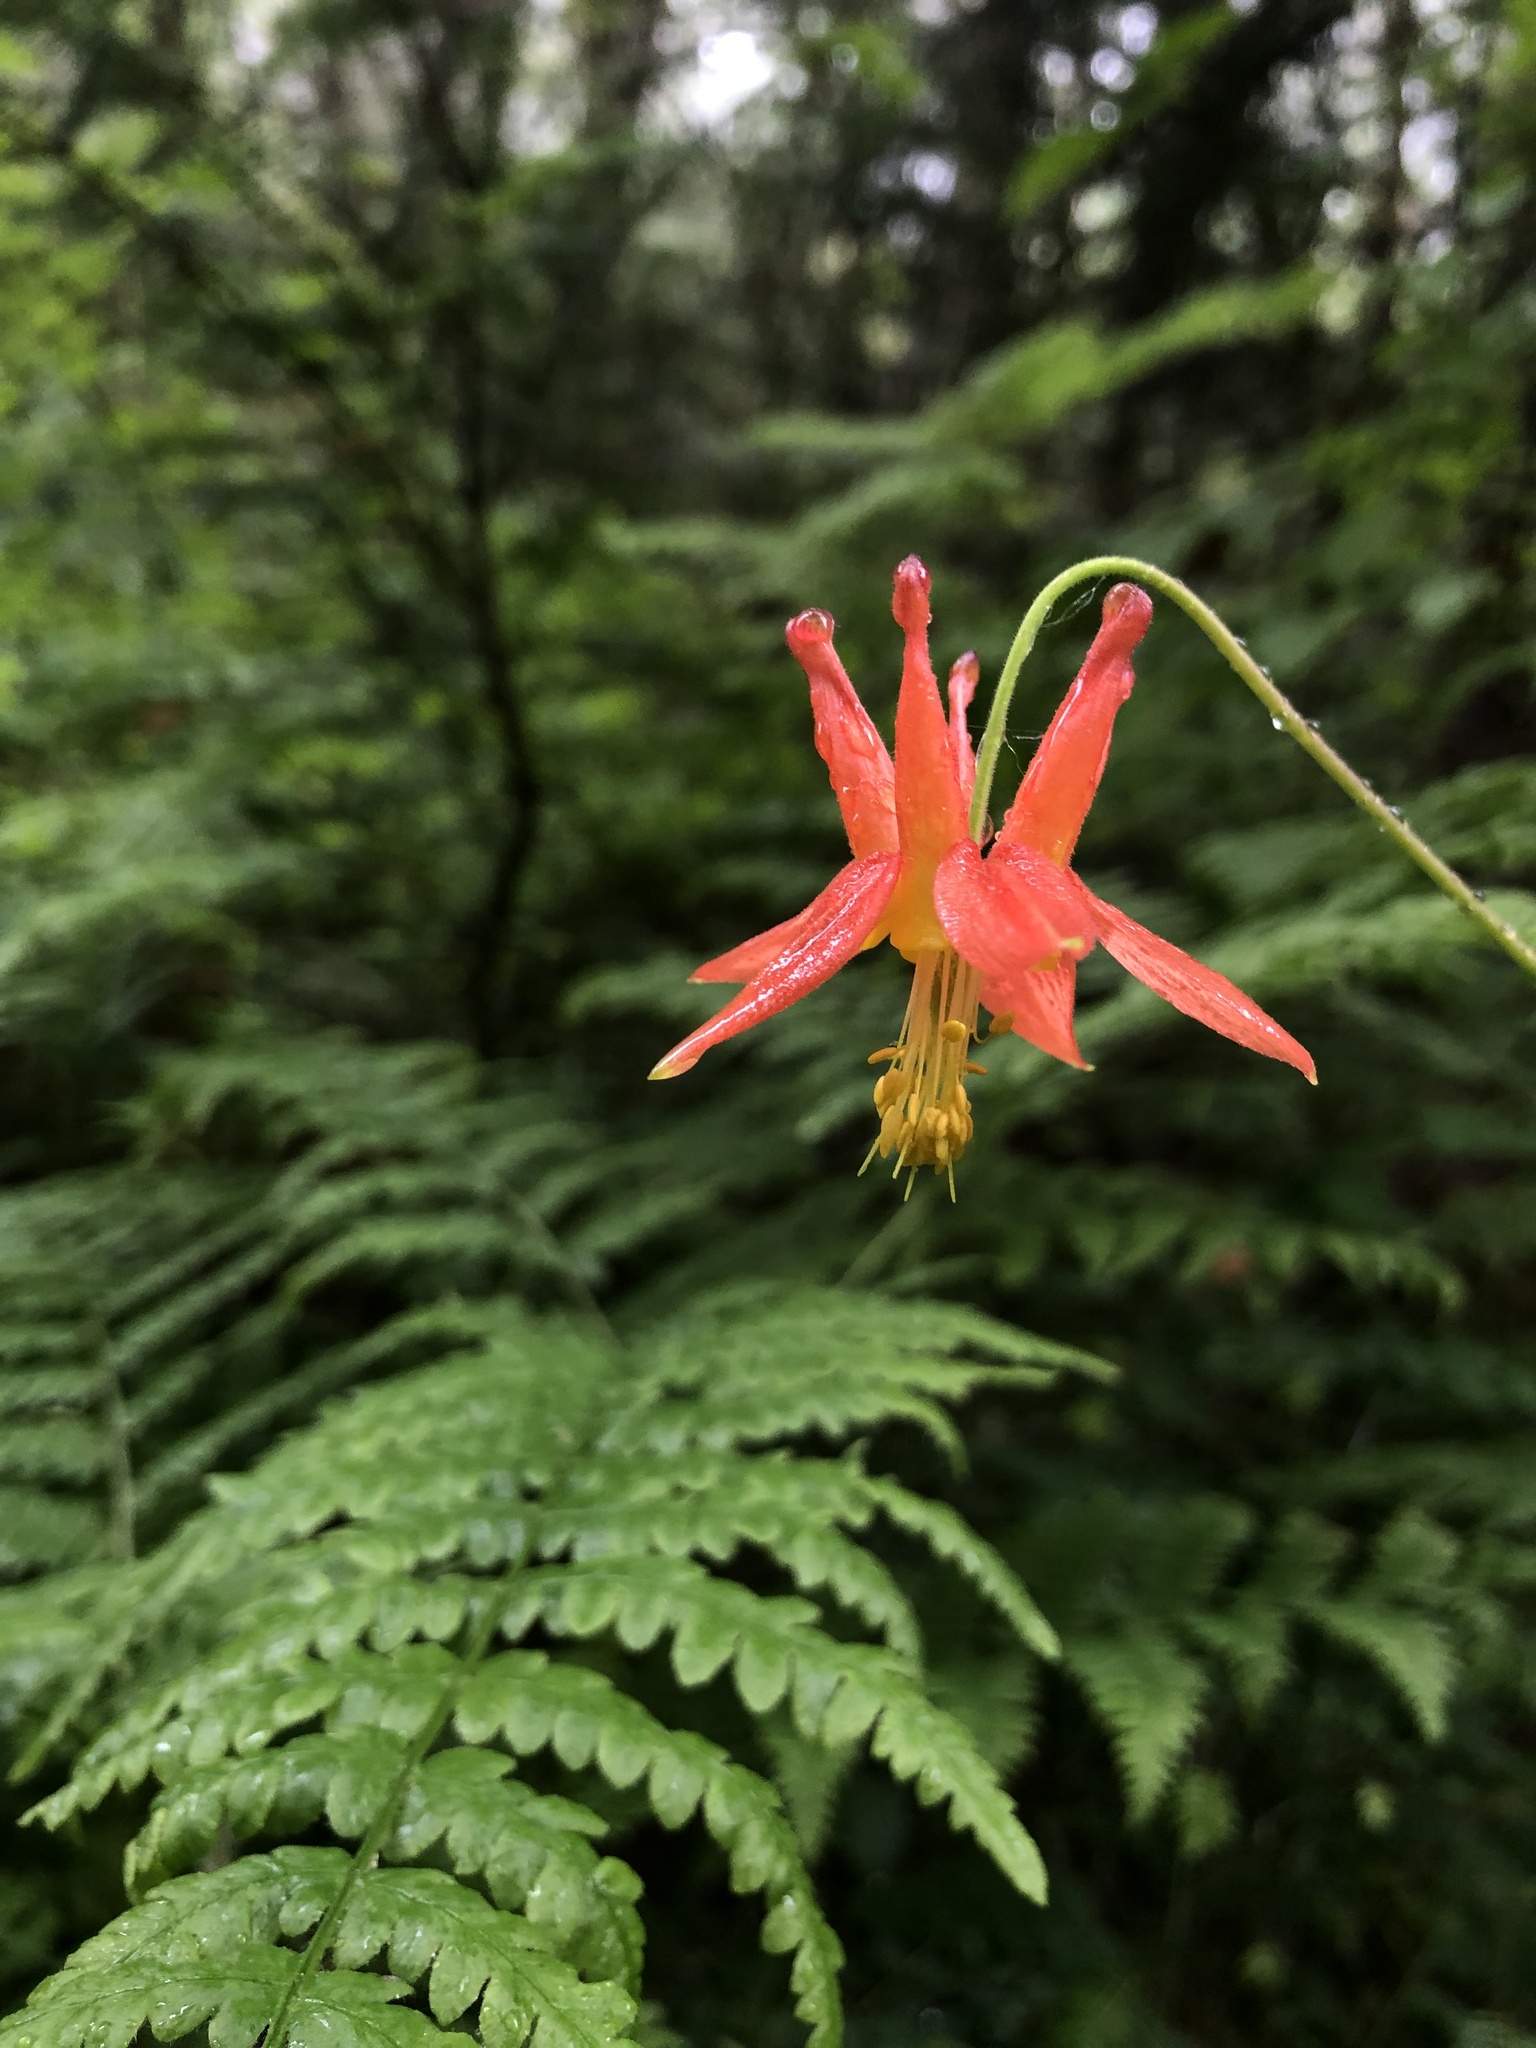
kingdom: Plantae
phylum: Tracheophyta
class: Magnoliopsida
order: Ranunculales
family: Ranunculaceae
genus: Aquilegia
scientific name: Aquilegia formosa
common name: Sitka columbine
